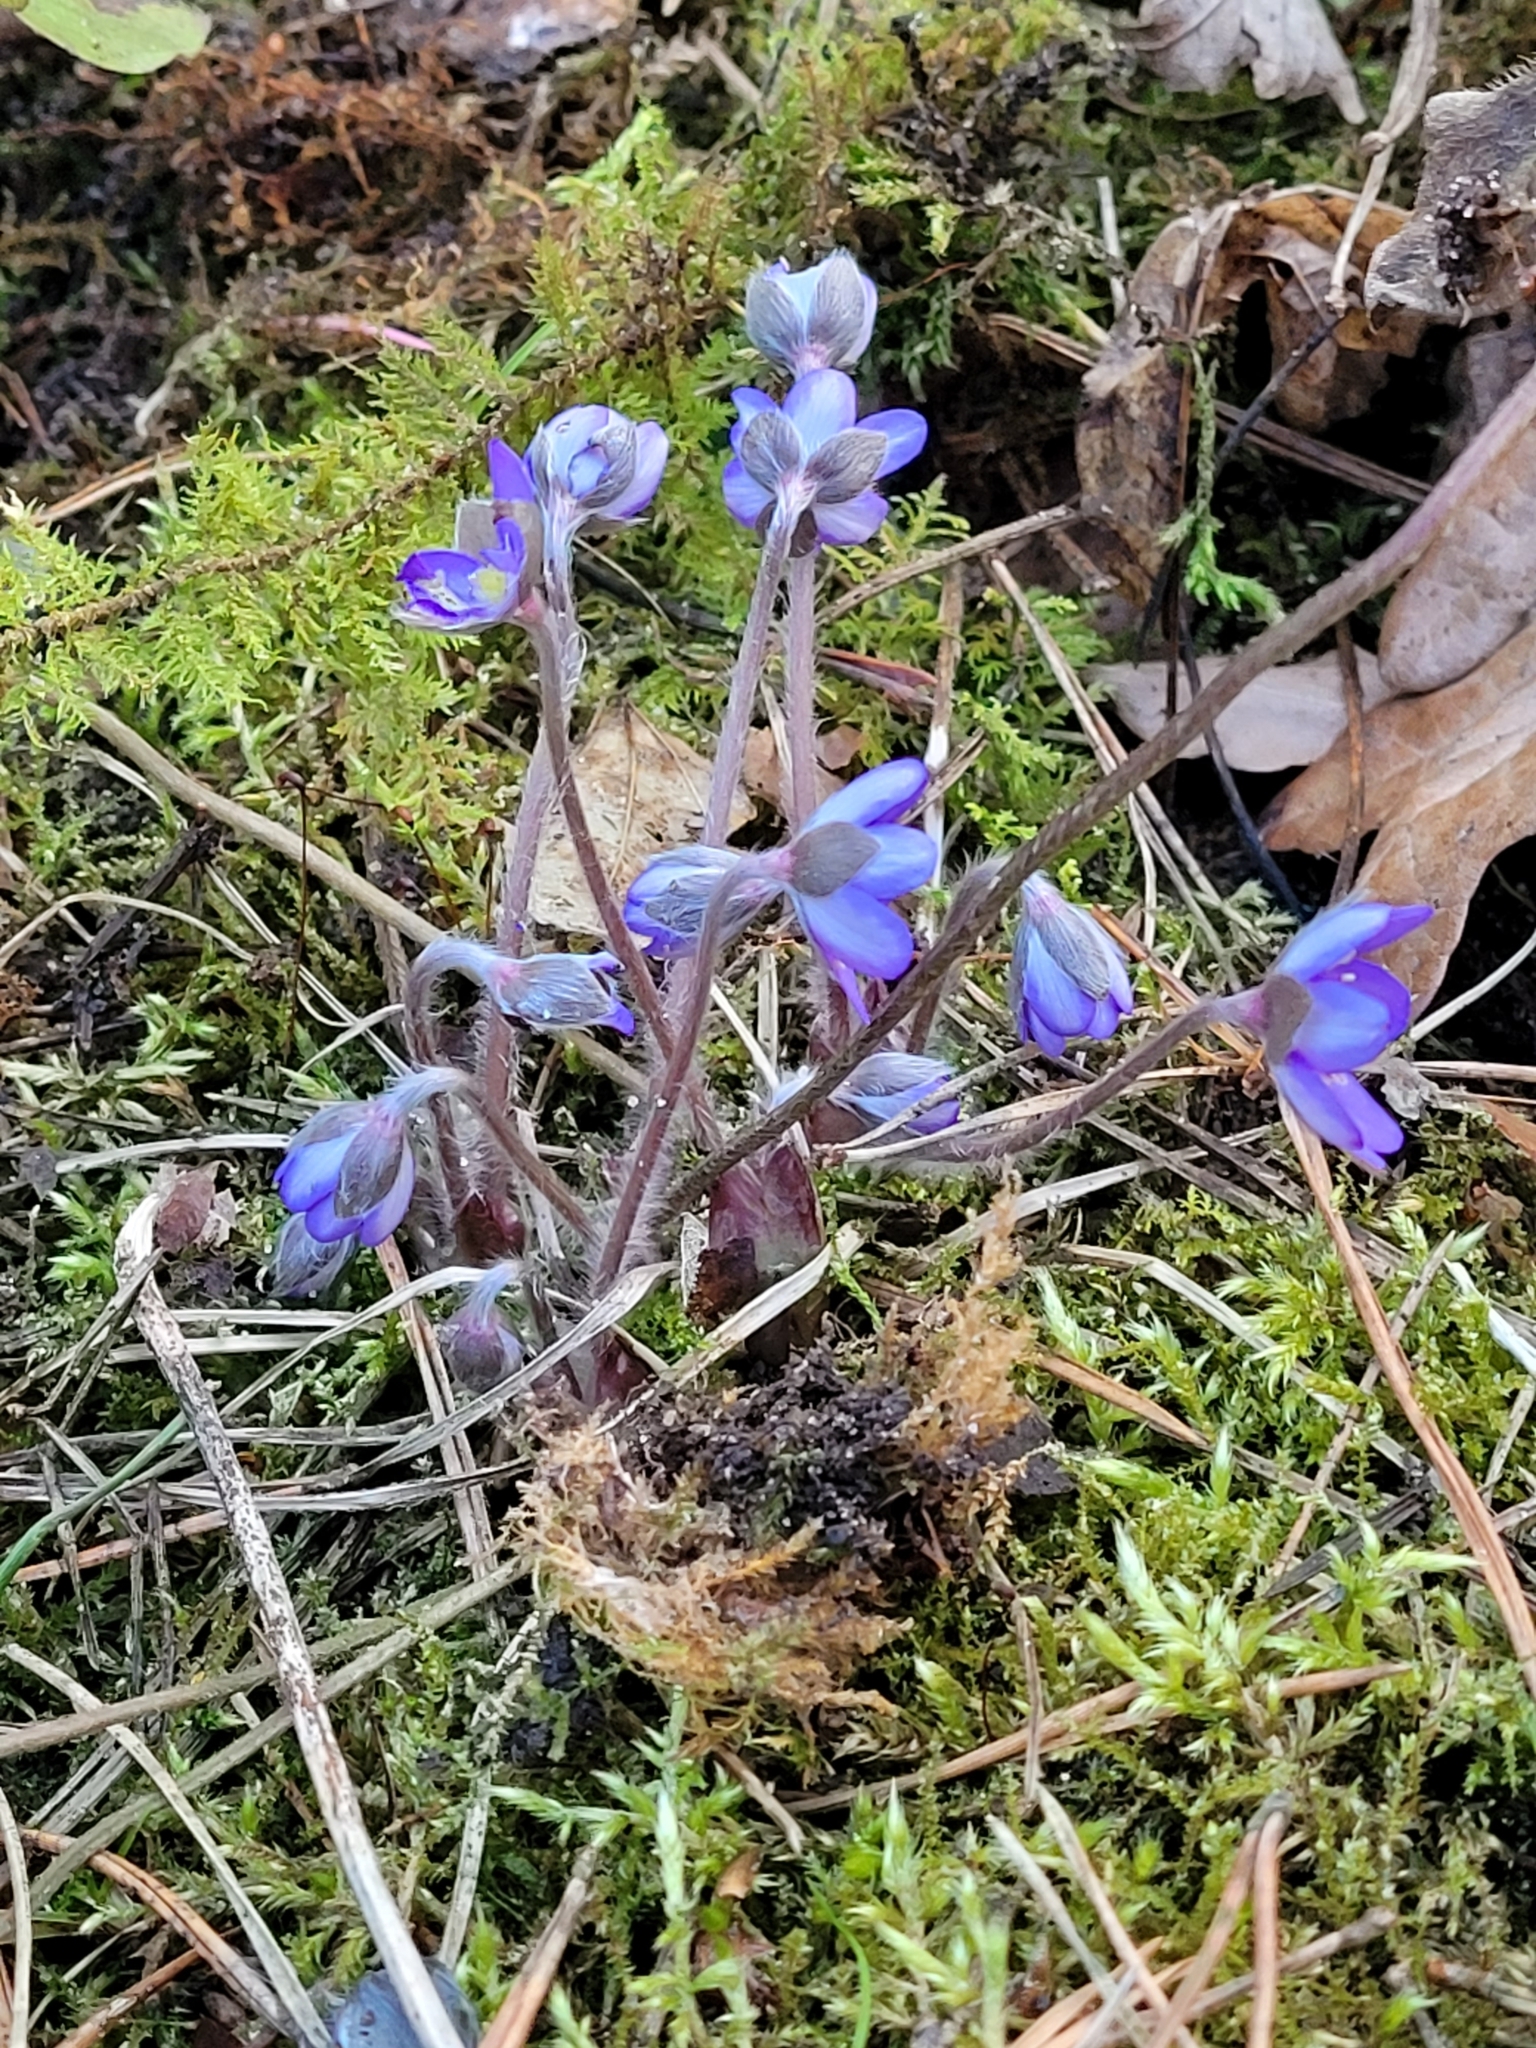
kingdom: Plantae
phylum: Tracheophyta
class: Magnoliopsida
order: Ranunculales
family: Ranunculaceae
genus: Hepatica
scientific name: Hepatica nobilis
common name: Liverleaf
